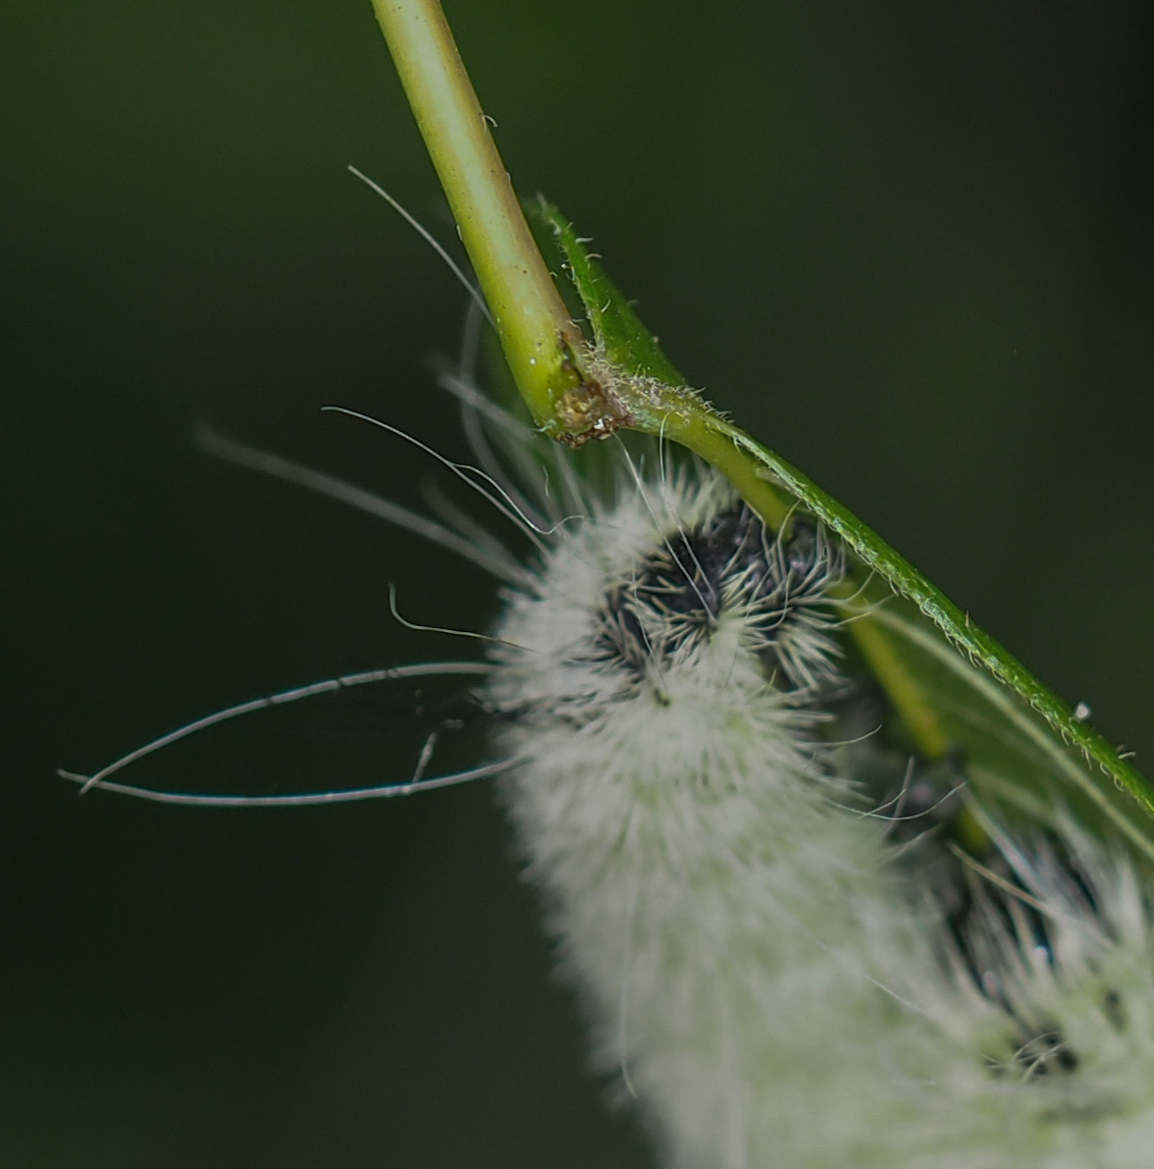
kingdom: Animalia
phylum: Arthropoda
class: Insecta
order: Lepidoptera
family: Noctuidae
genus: Acronicta
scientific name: Acronicta americana
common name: American dagger
